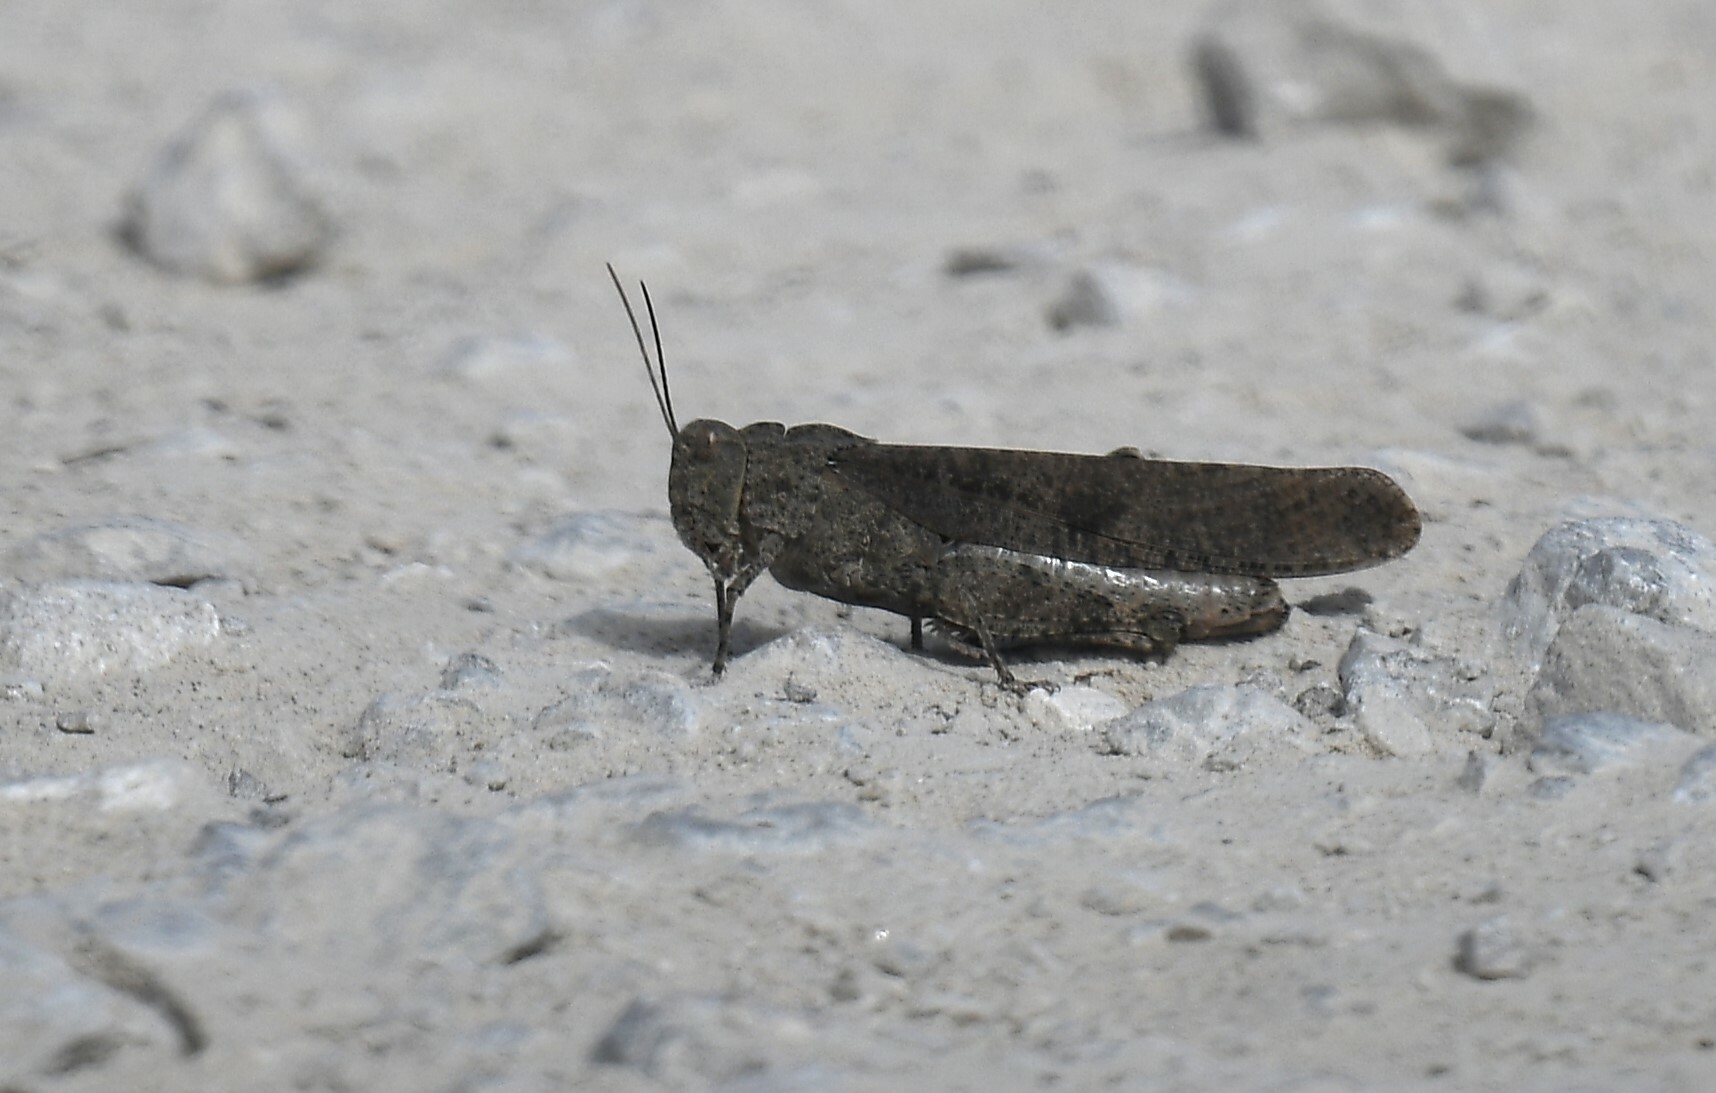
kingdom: Animalia
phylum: Arthropoda
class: Insecta
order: Orthoptera
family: Acrididae
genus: Dissosteira
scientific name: Dissosteira carolina
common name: Carolina grasshopper
